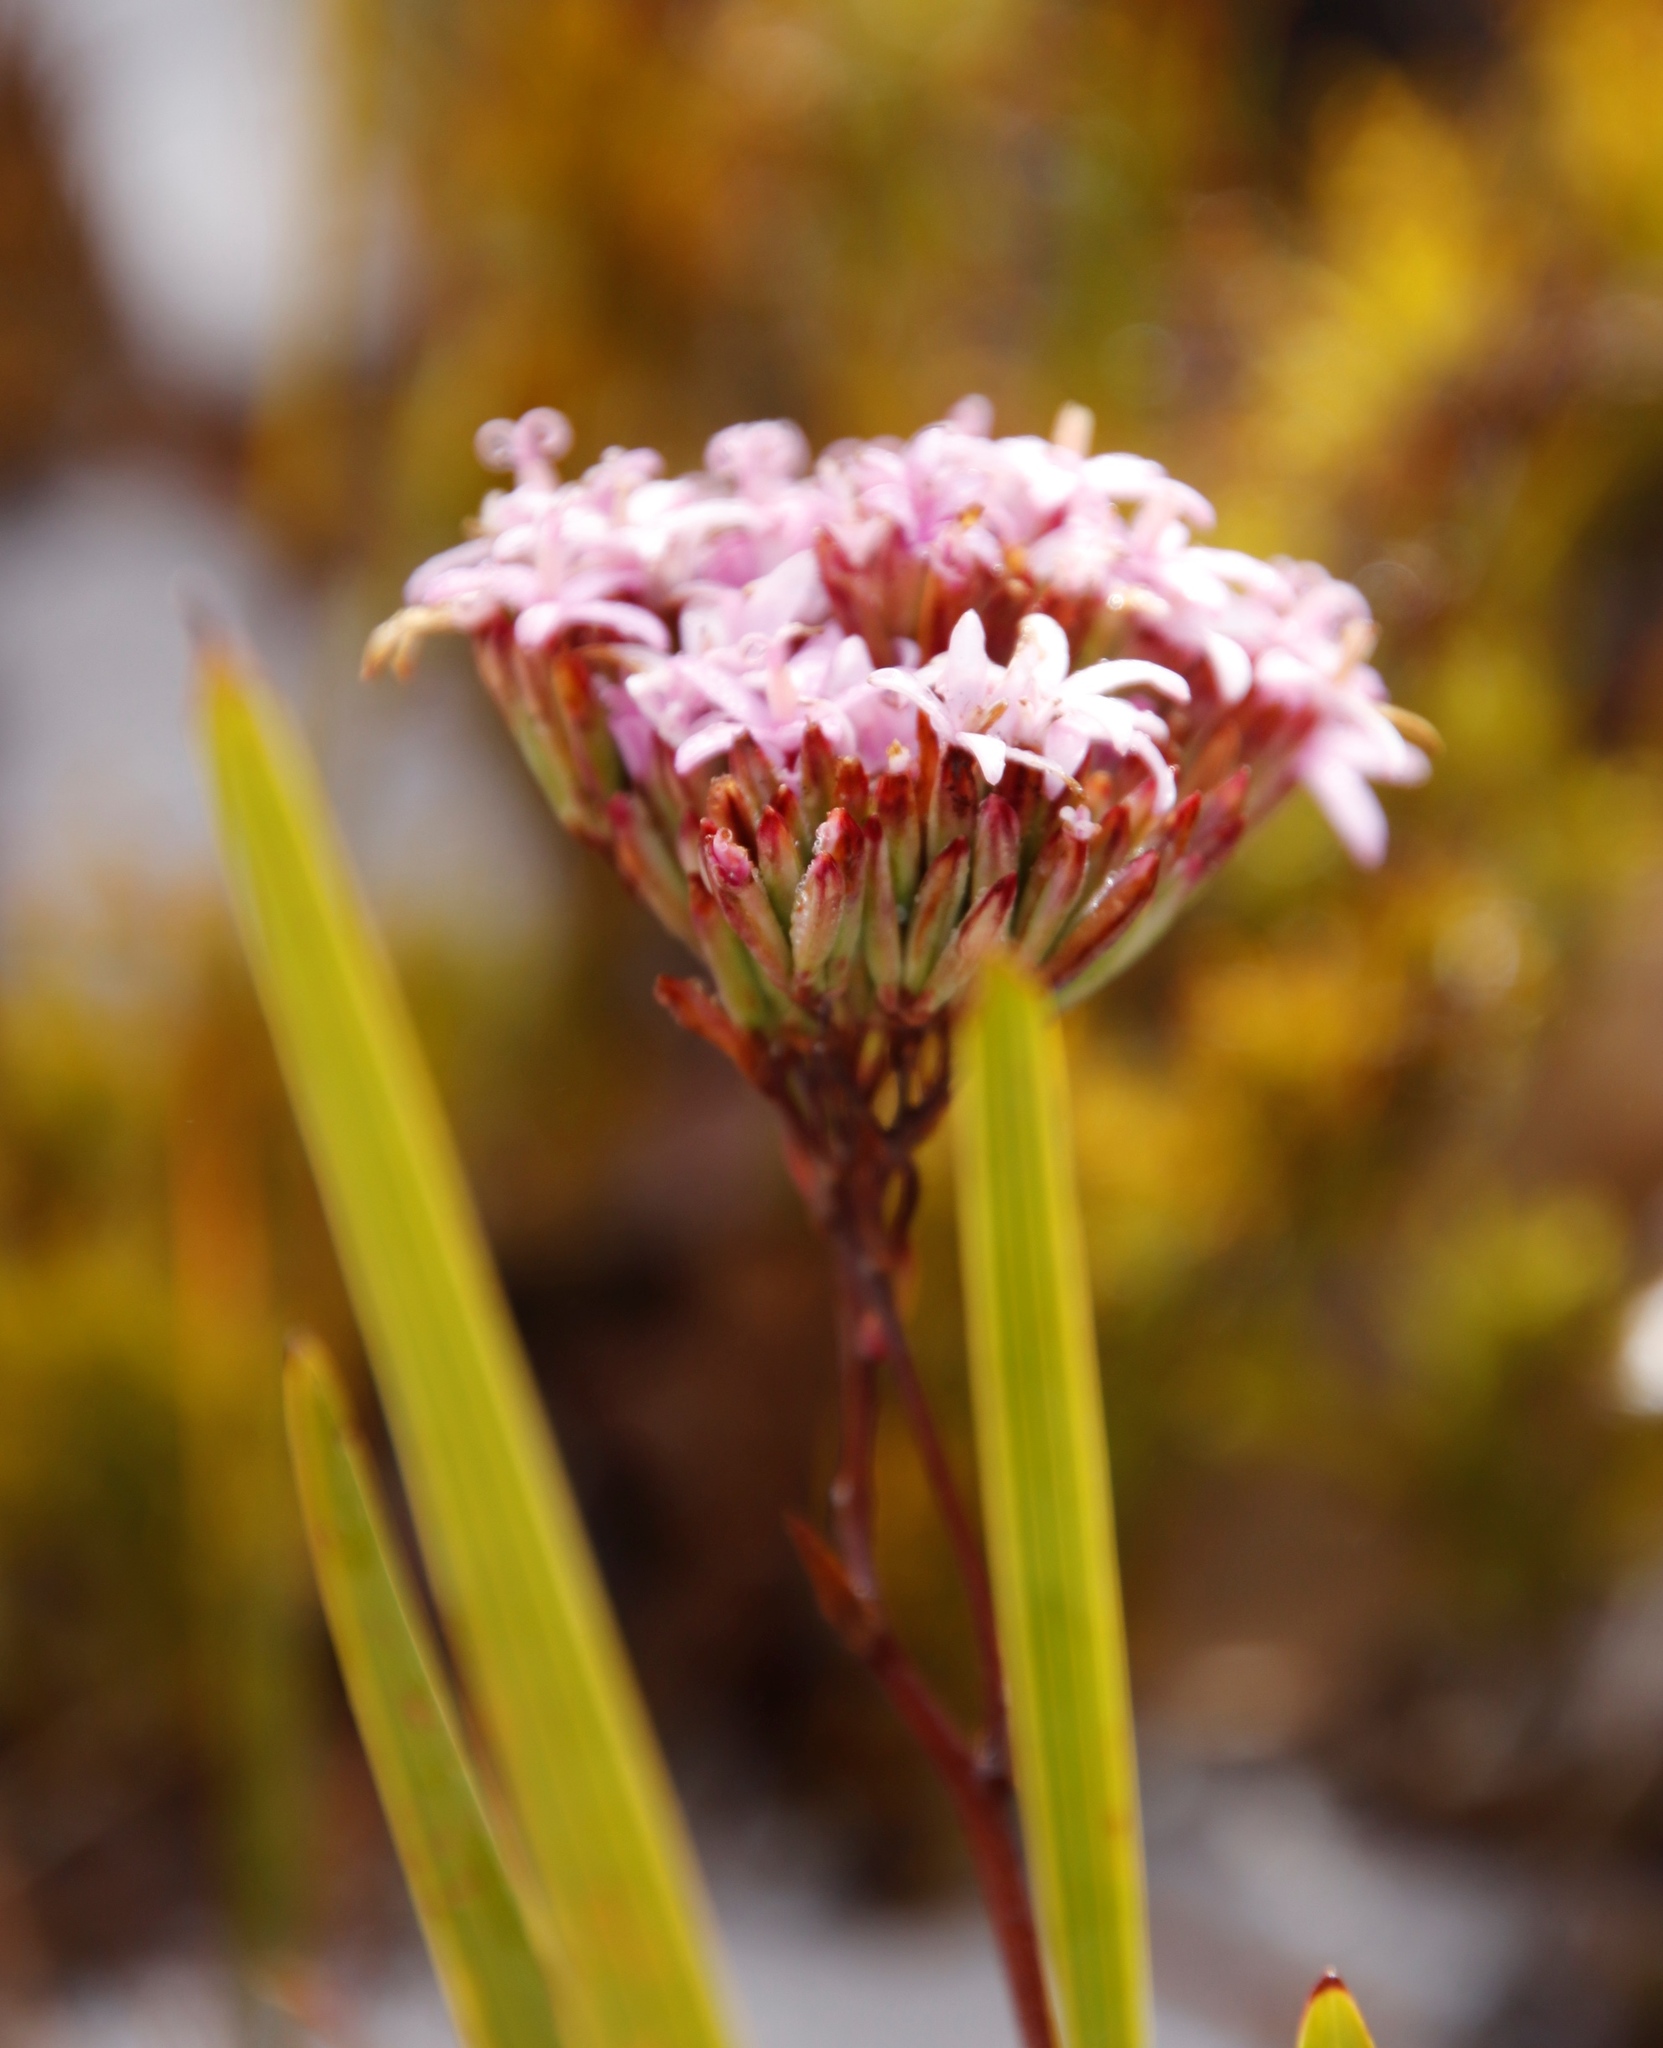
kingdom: Plantae
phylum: Tracheophyta
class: Magnoliopsida
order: Asterales
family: Asteraceae
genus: Corymbium
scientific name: Corymbium glabrum
